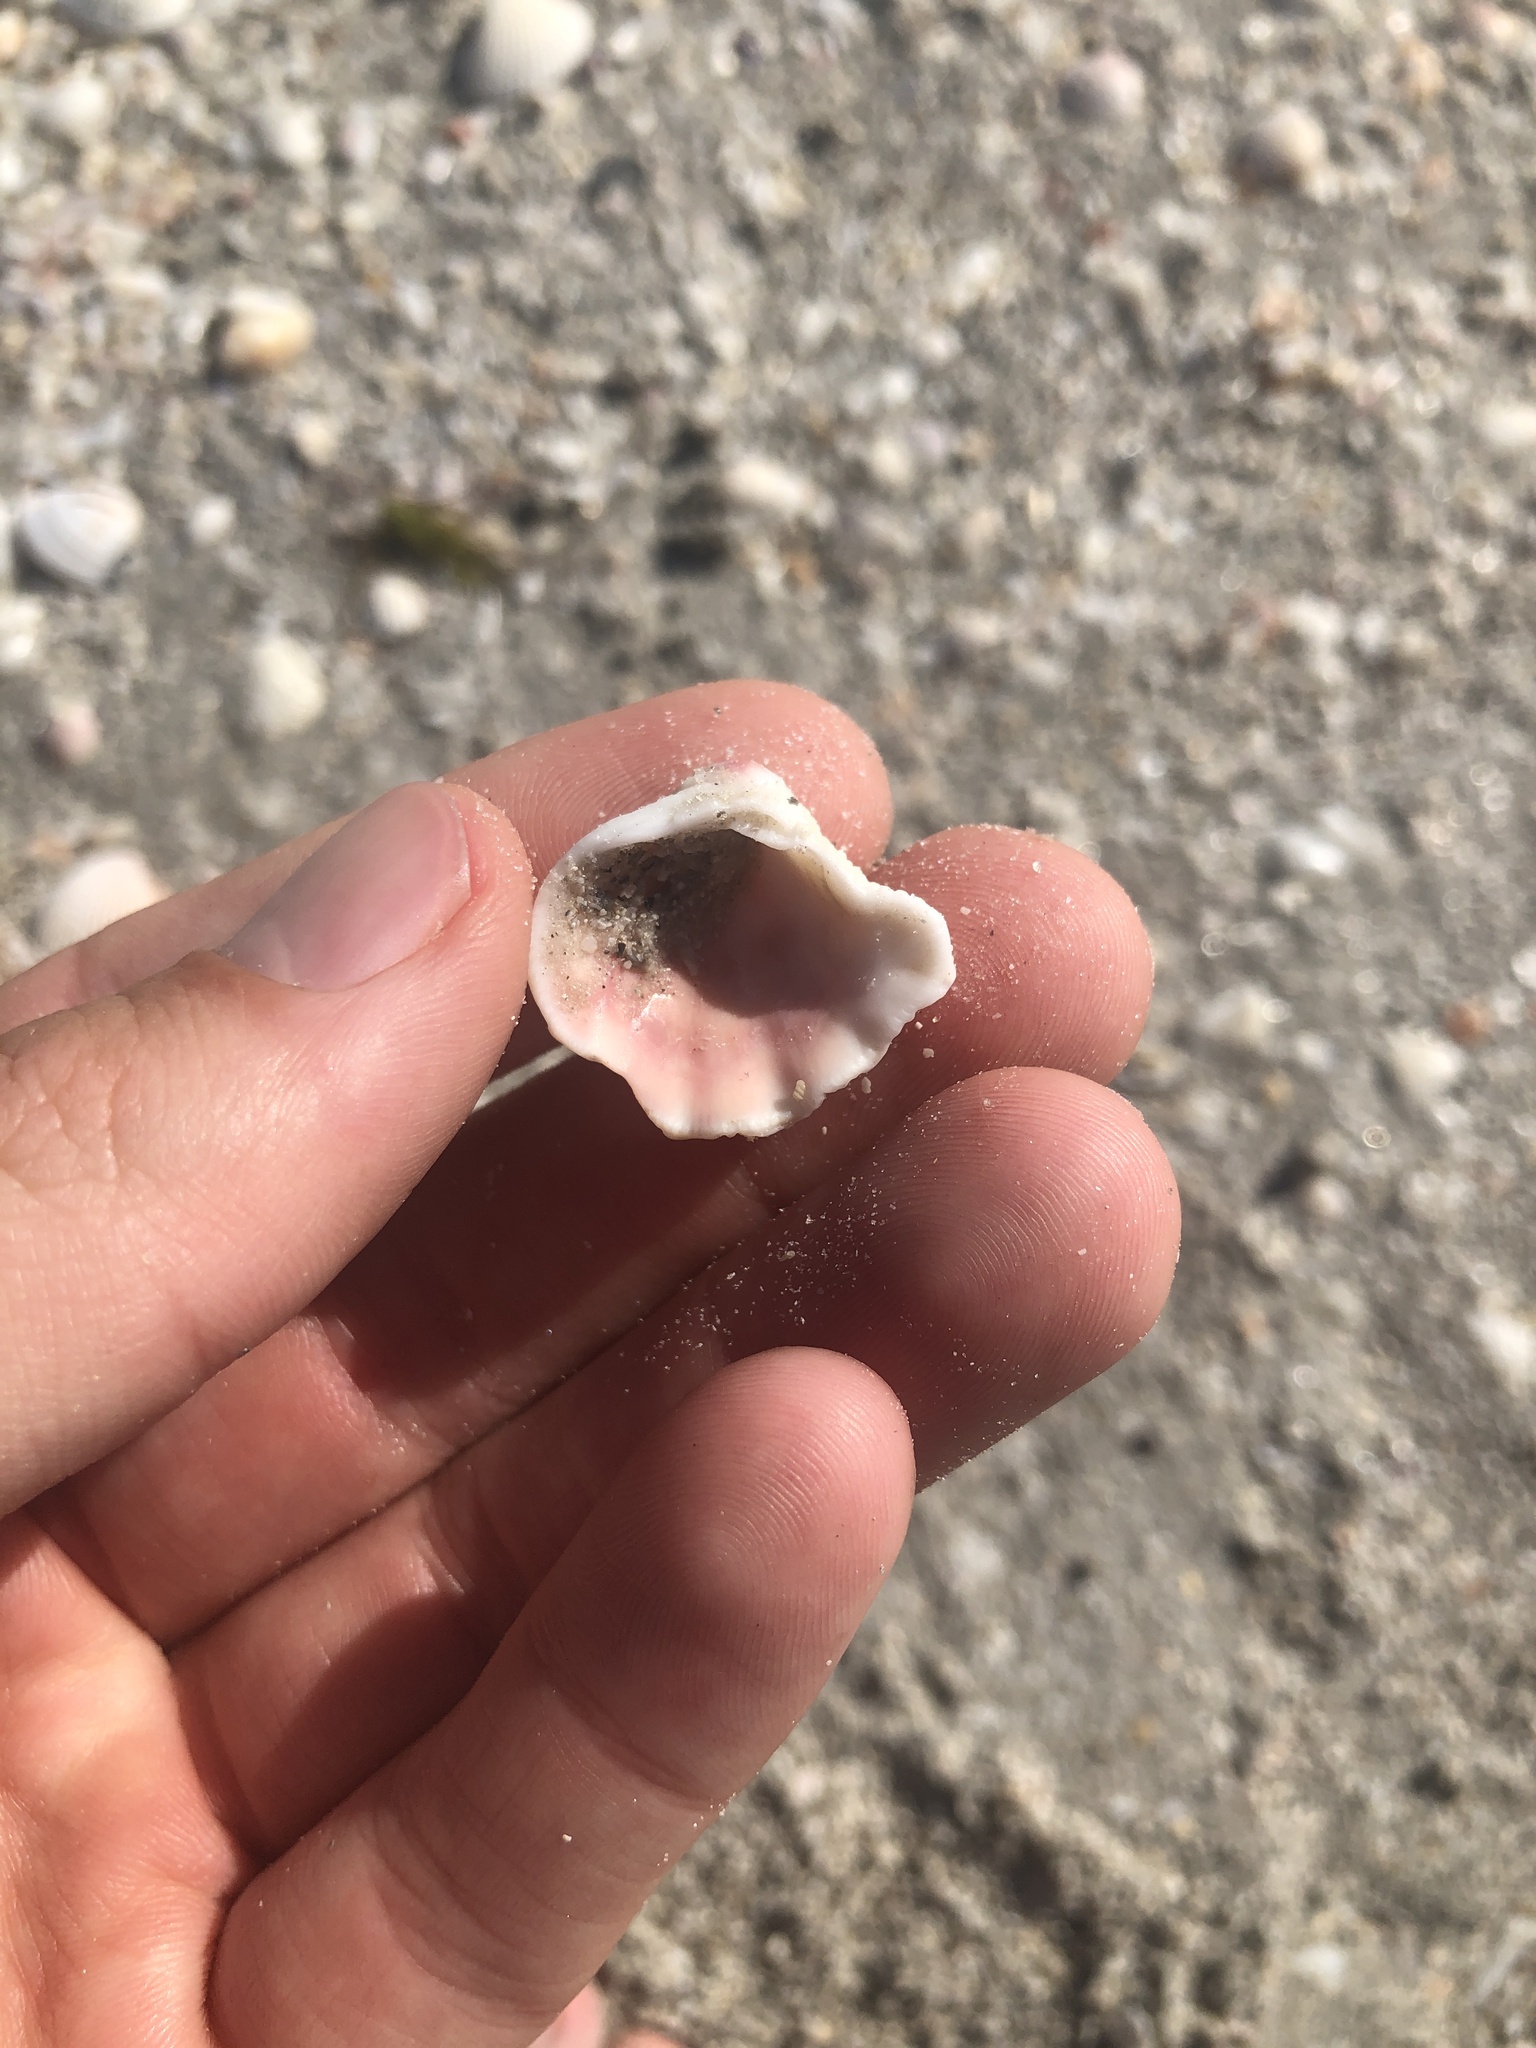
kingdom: Animalia
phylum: Mollusca
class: Bivalvia
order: Venerida
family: Chamidae
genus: Arcinella
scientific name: Arcinella cornuta
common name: Florida spiny jewel box
